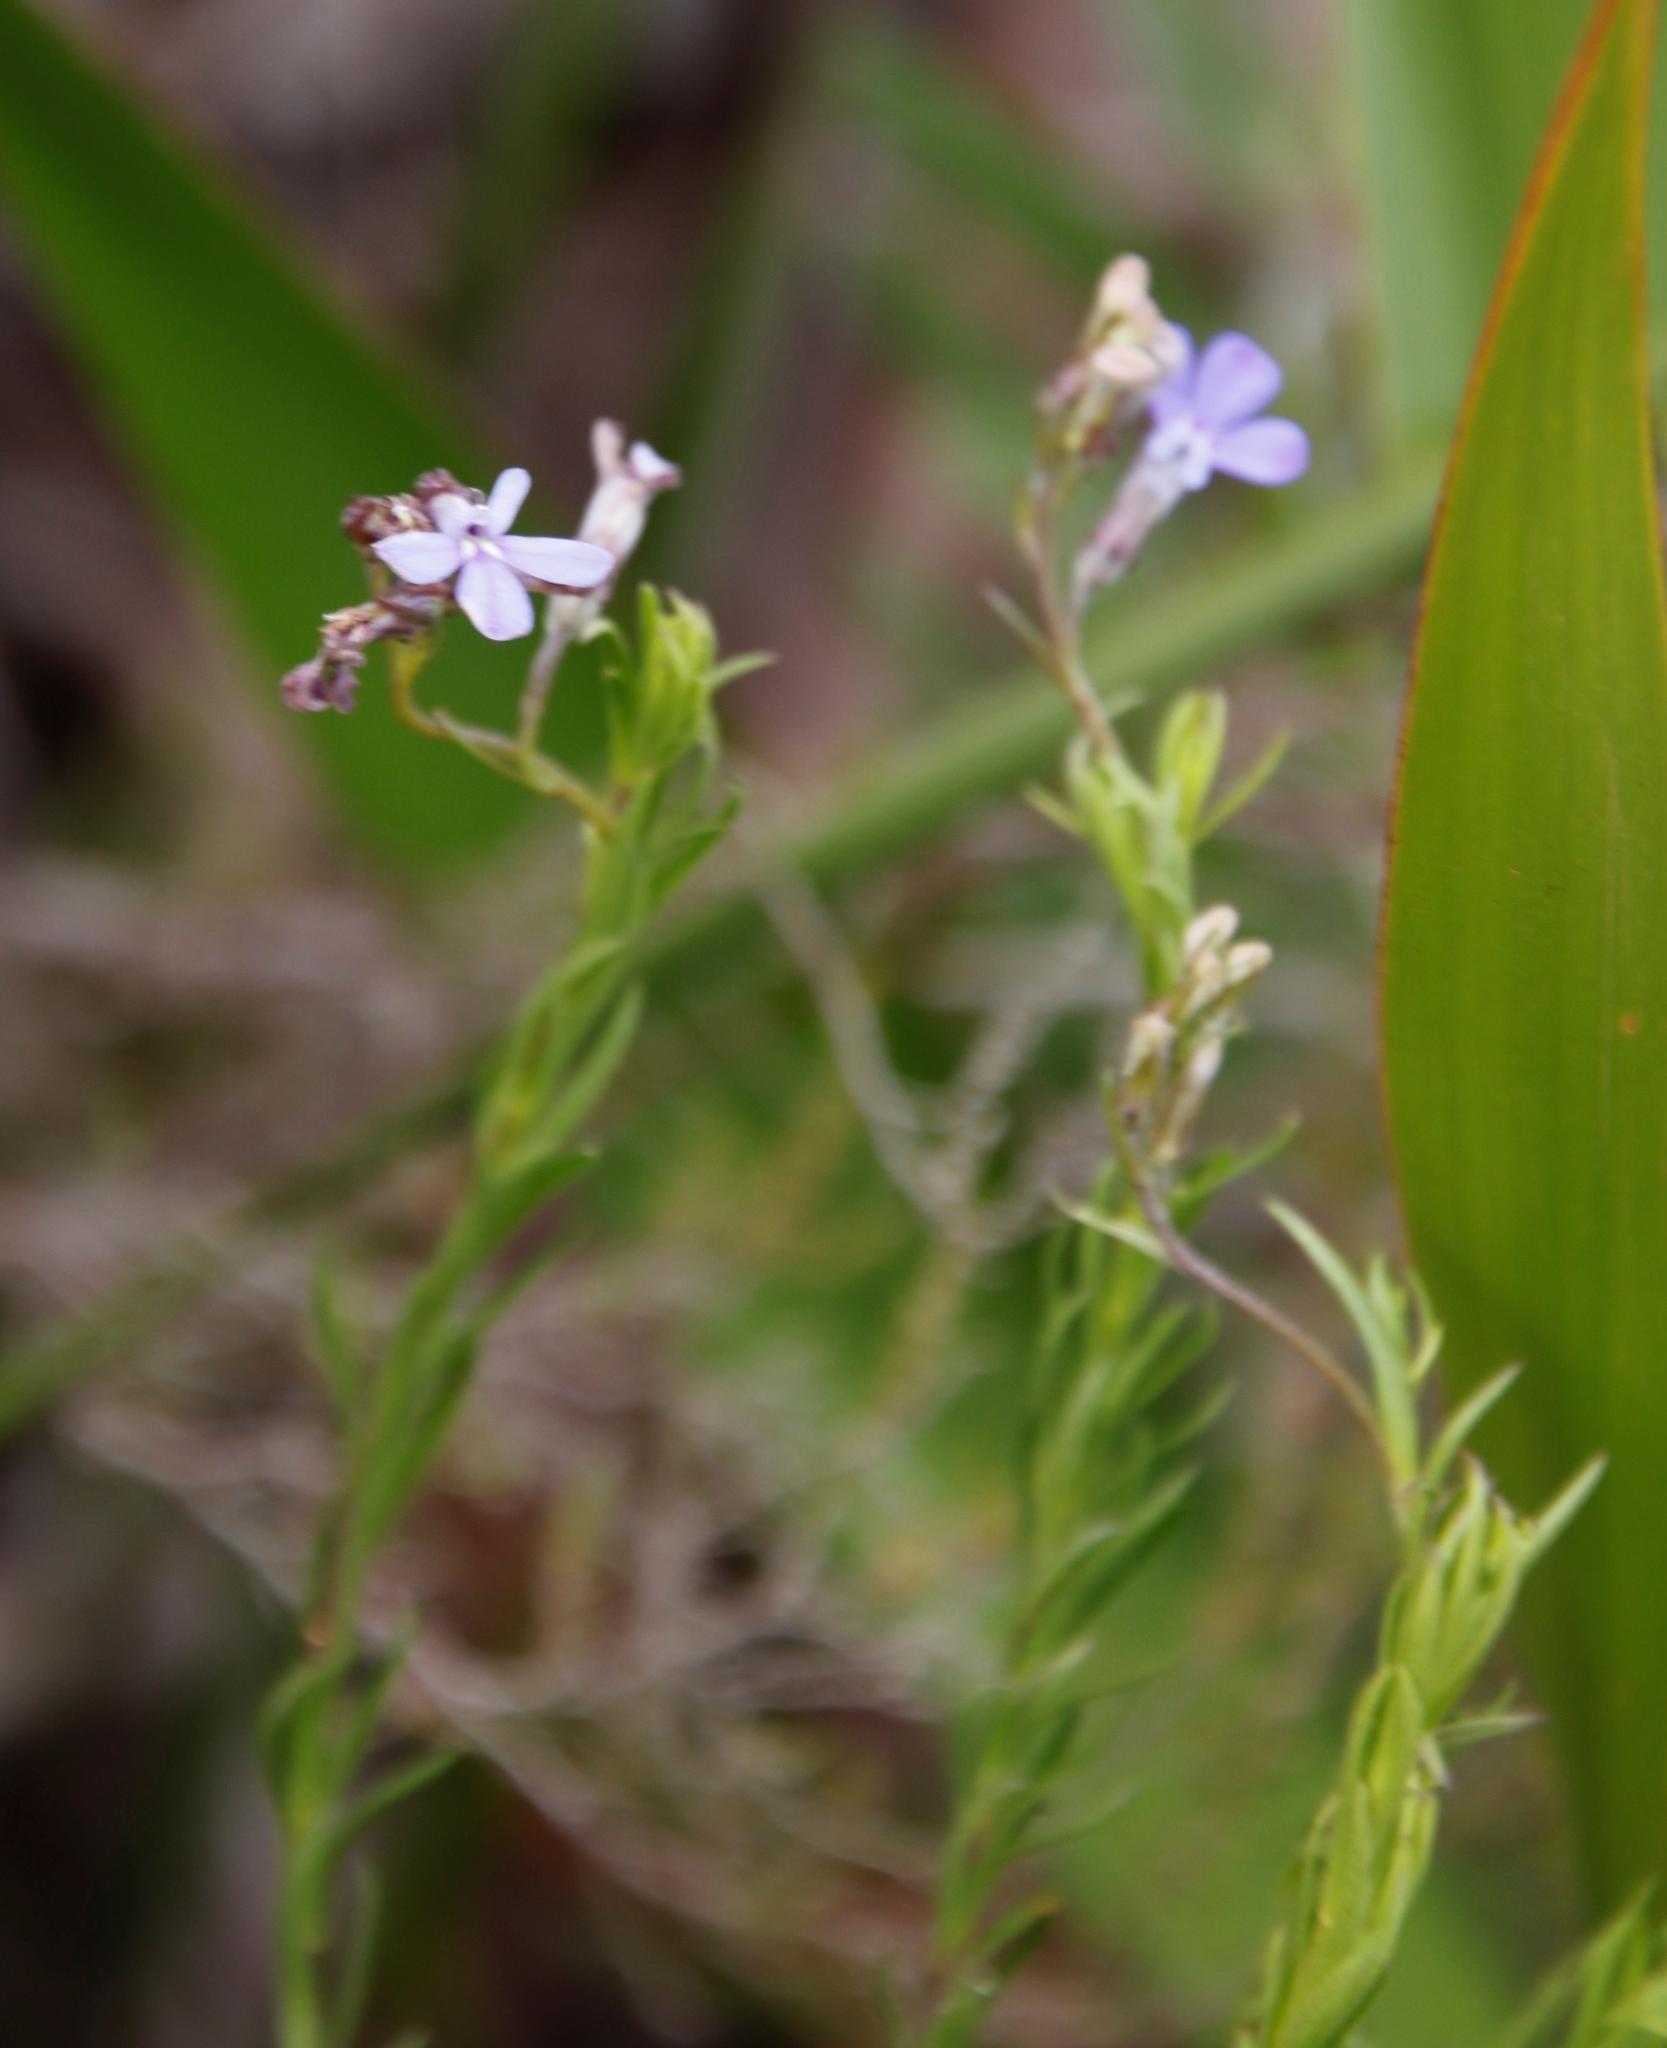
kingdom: Plantae
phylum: Tracheophyta
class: Magnoliopsida
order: Asterales
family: Campanulaceae
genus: Lobelia
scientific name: Lobelia pinifolia
